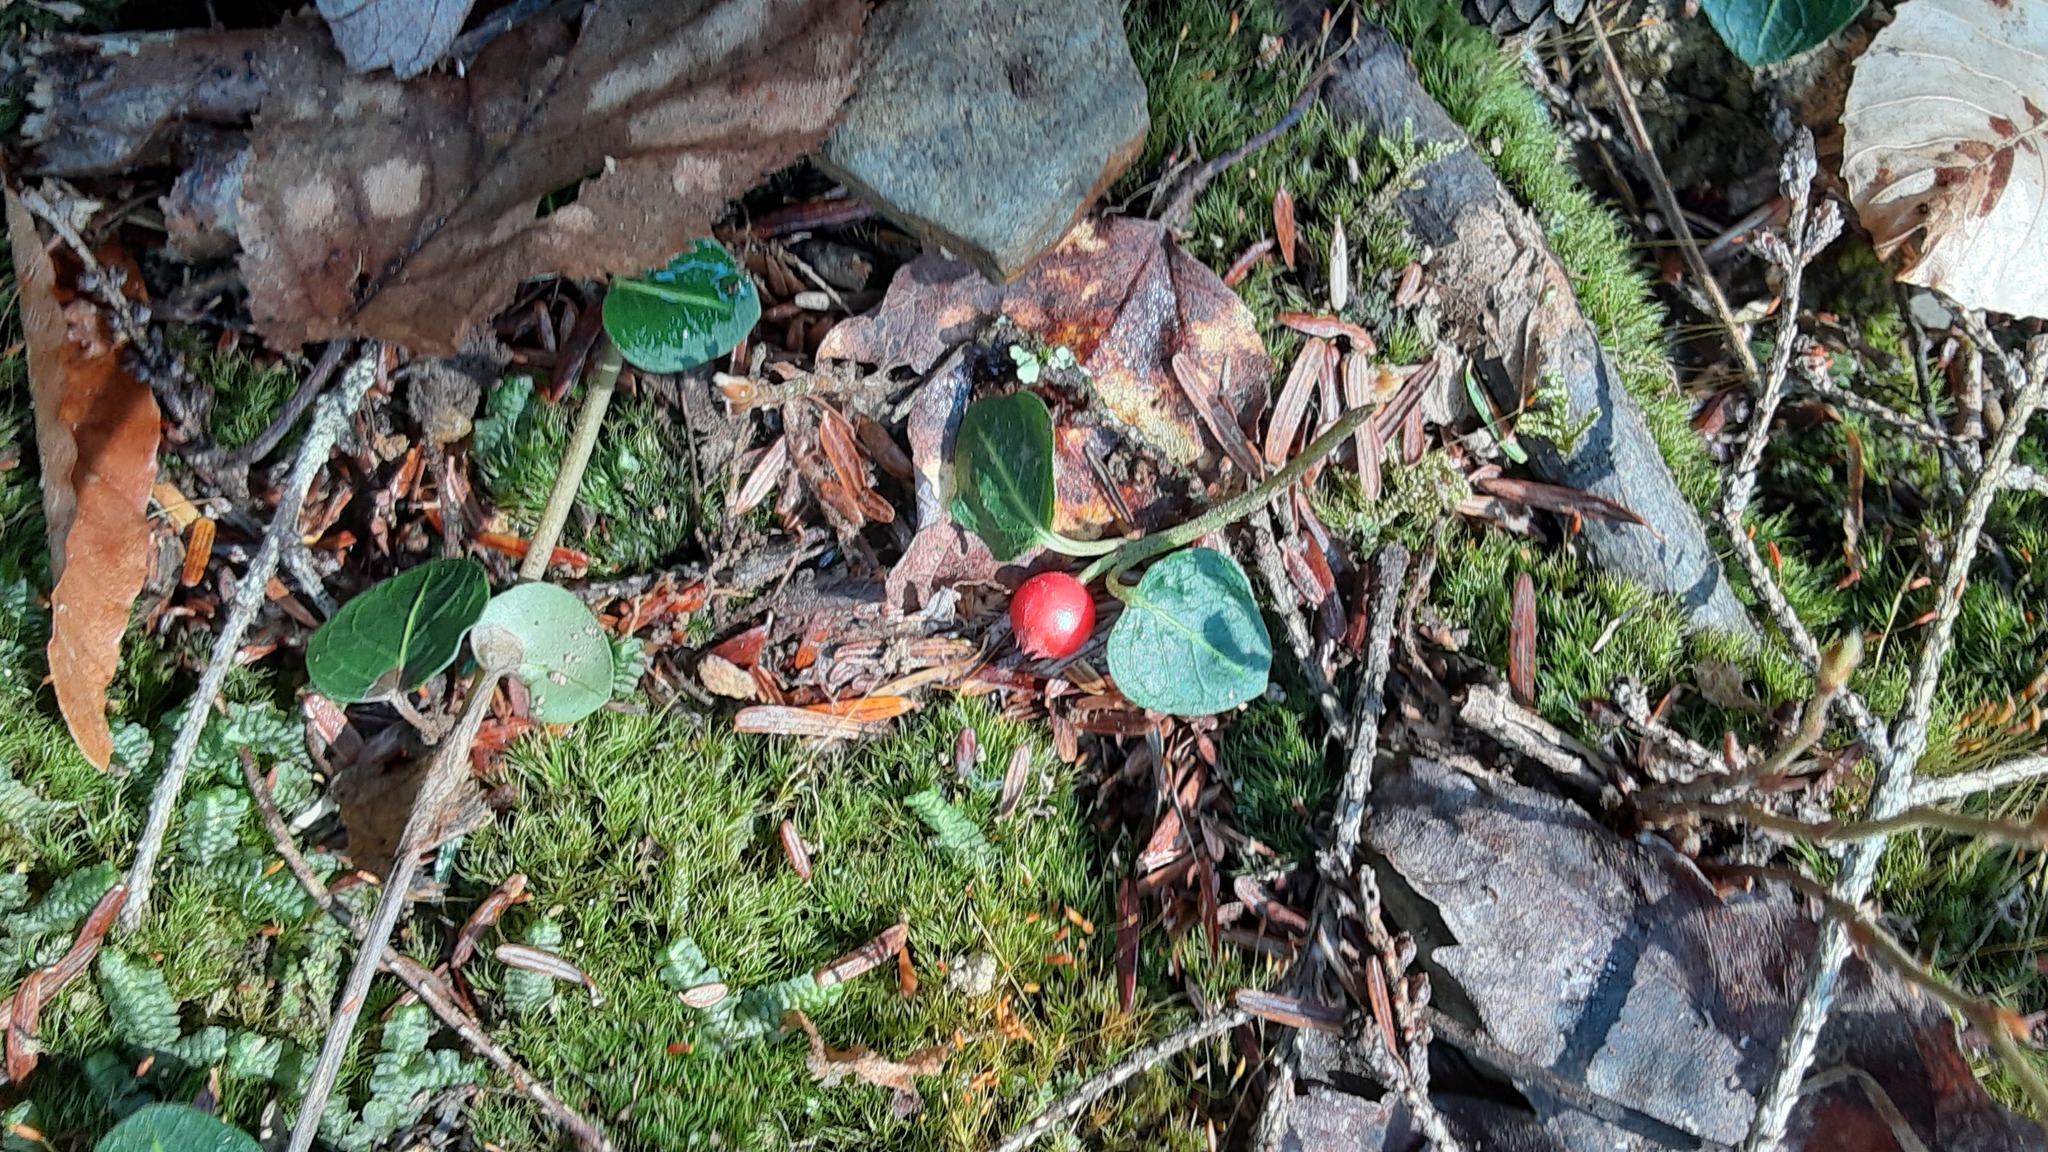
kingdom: Plantae
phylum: Tracheophyta
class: Magnoliopsida
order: Gentianales
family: Rubiaceae
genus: Mitchella
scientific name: Mitchella repens
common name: Partridge-berry
